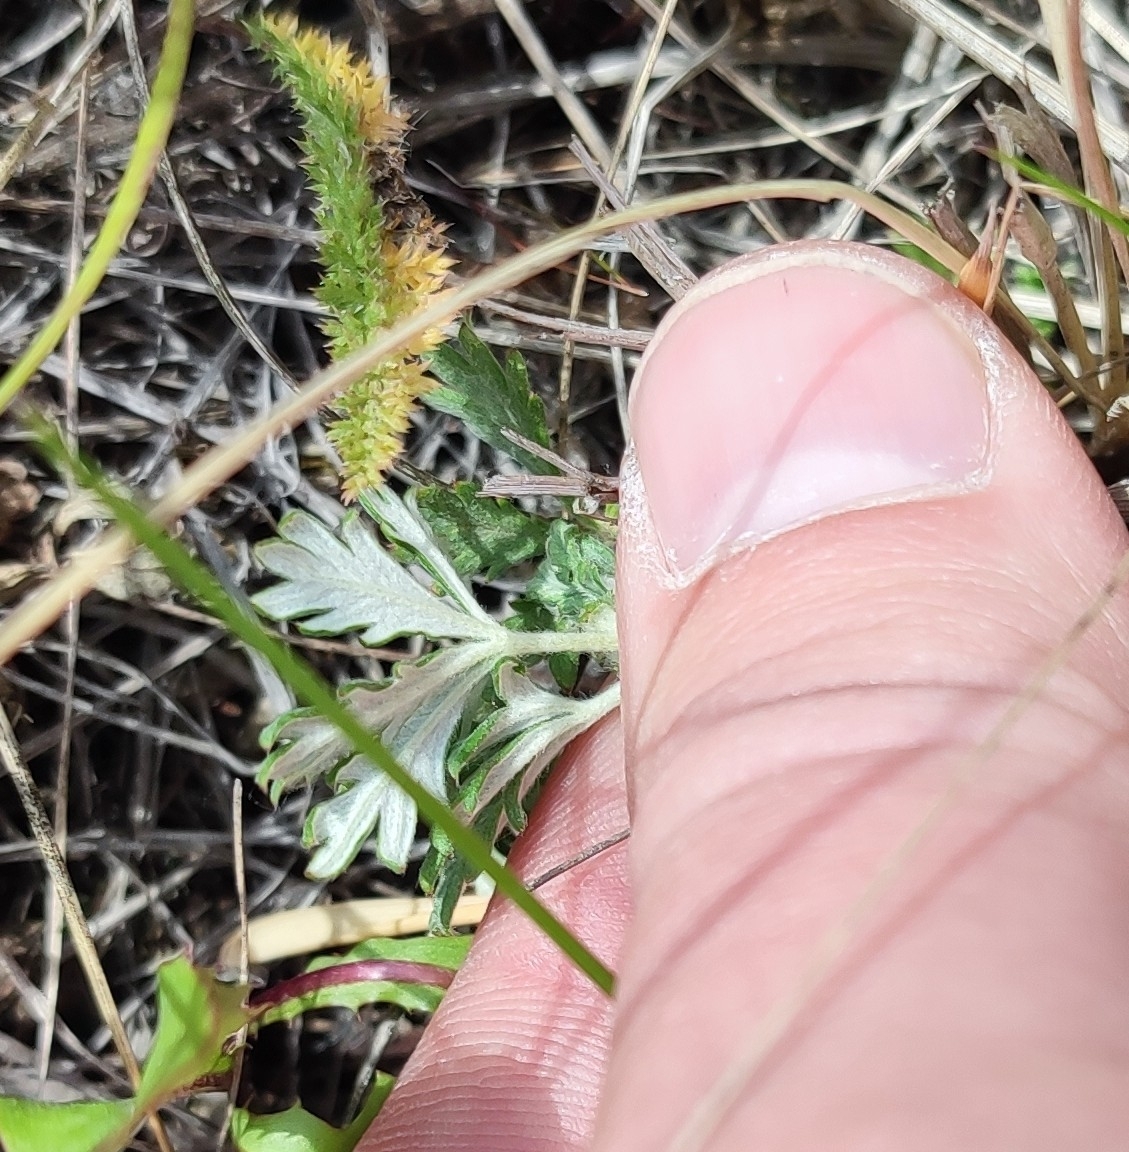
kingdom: Plantae
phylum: Tracheophyta
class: Magnoliopsida
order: Rosales
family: Rosaceae
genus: Potentilla
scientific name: Potentilla argentea
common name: Hoary cinquefoil
